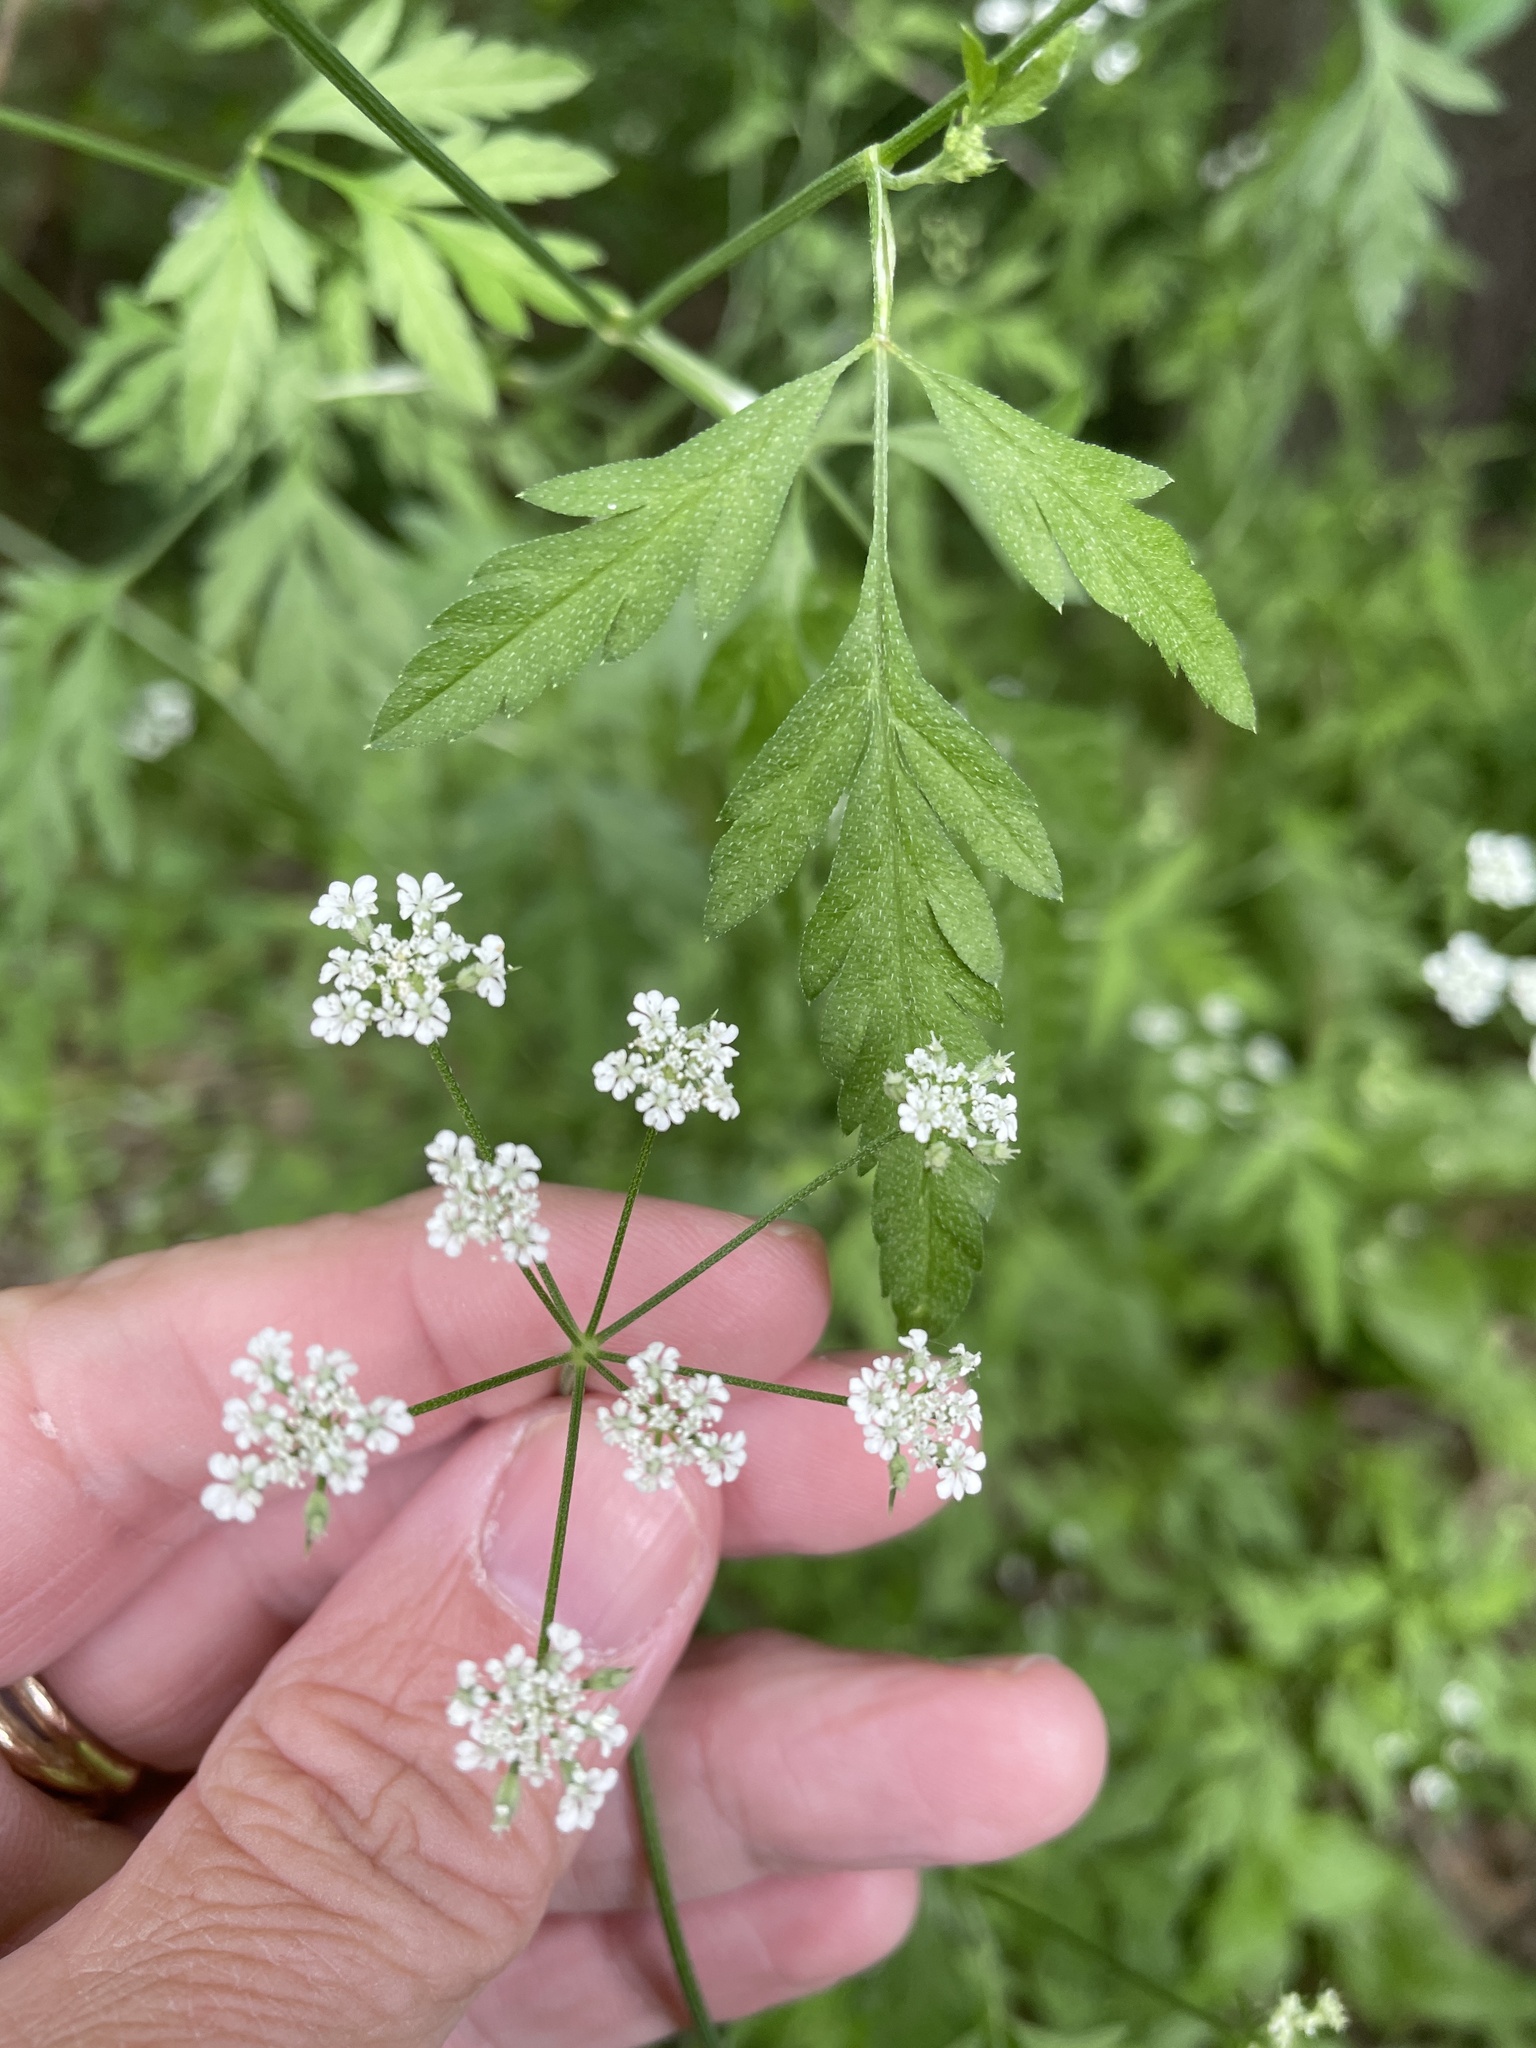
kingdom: Plantae
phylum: Tracheophyta
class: Magnoliopsida
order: Apiales
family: Apiaceae
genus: Torilis
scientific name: Torilis arvensis
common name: Spreading hedge-parsley
